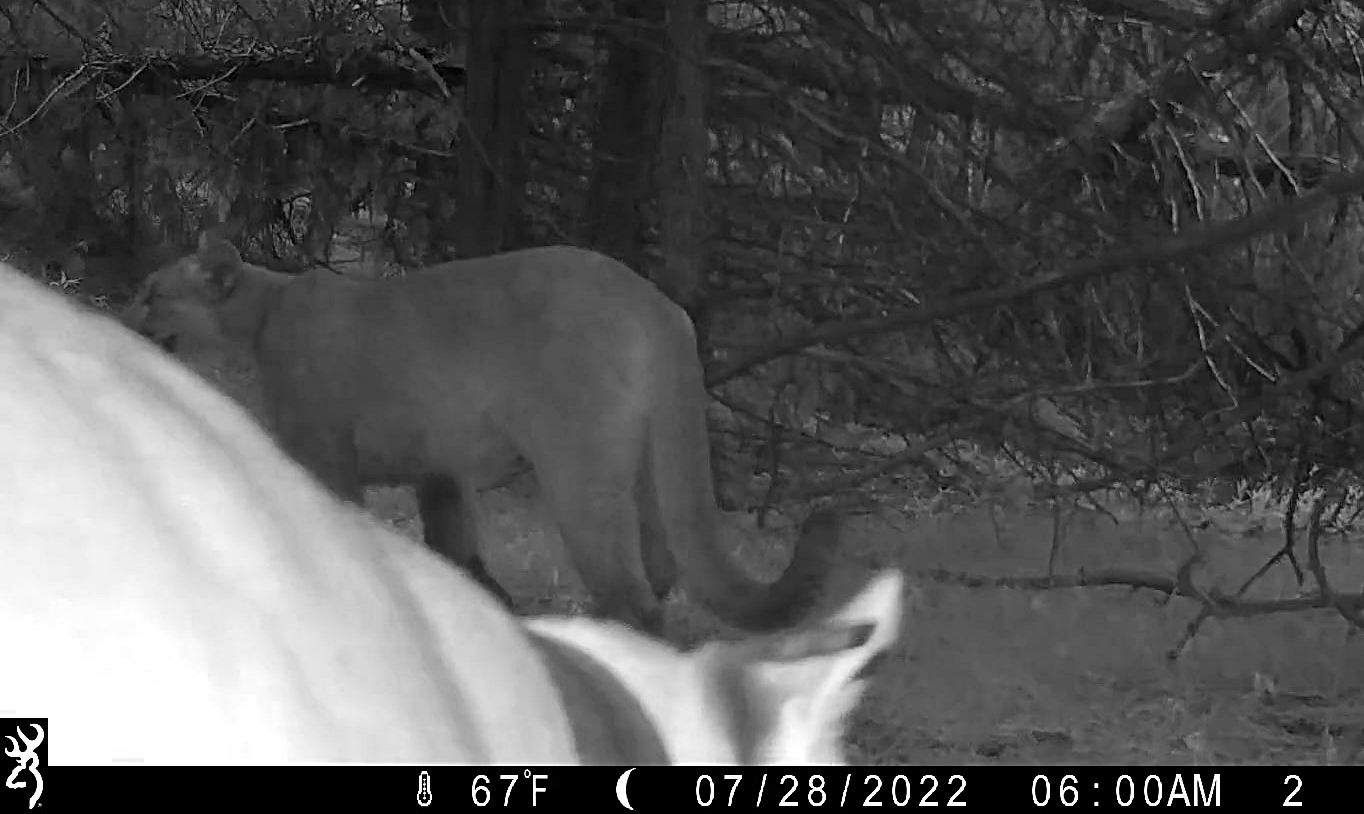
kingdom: Animalia
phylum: Chordata
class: Mammalia
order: Carnivora
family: Felidae
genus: Puma
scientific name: Puma concolor
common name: Puma
